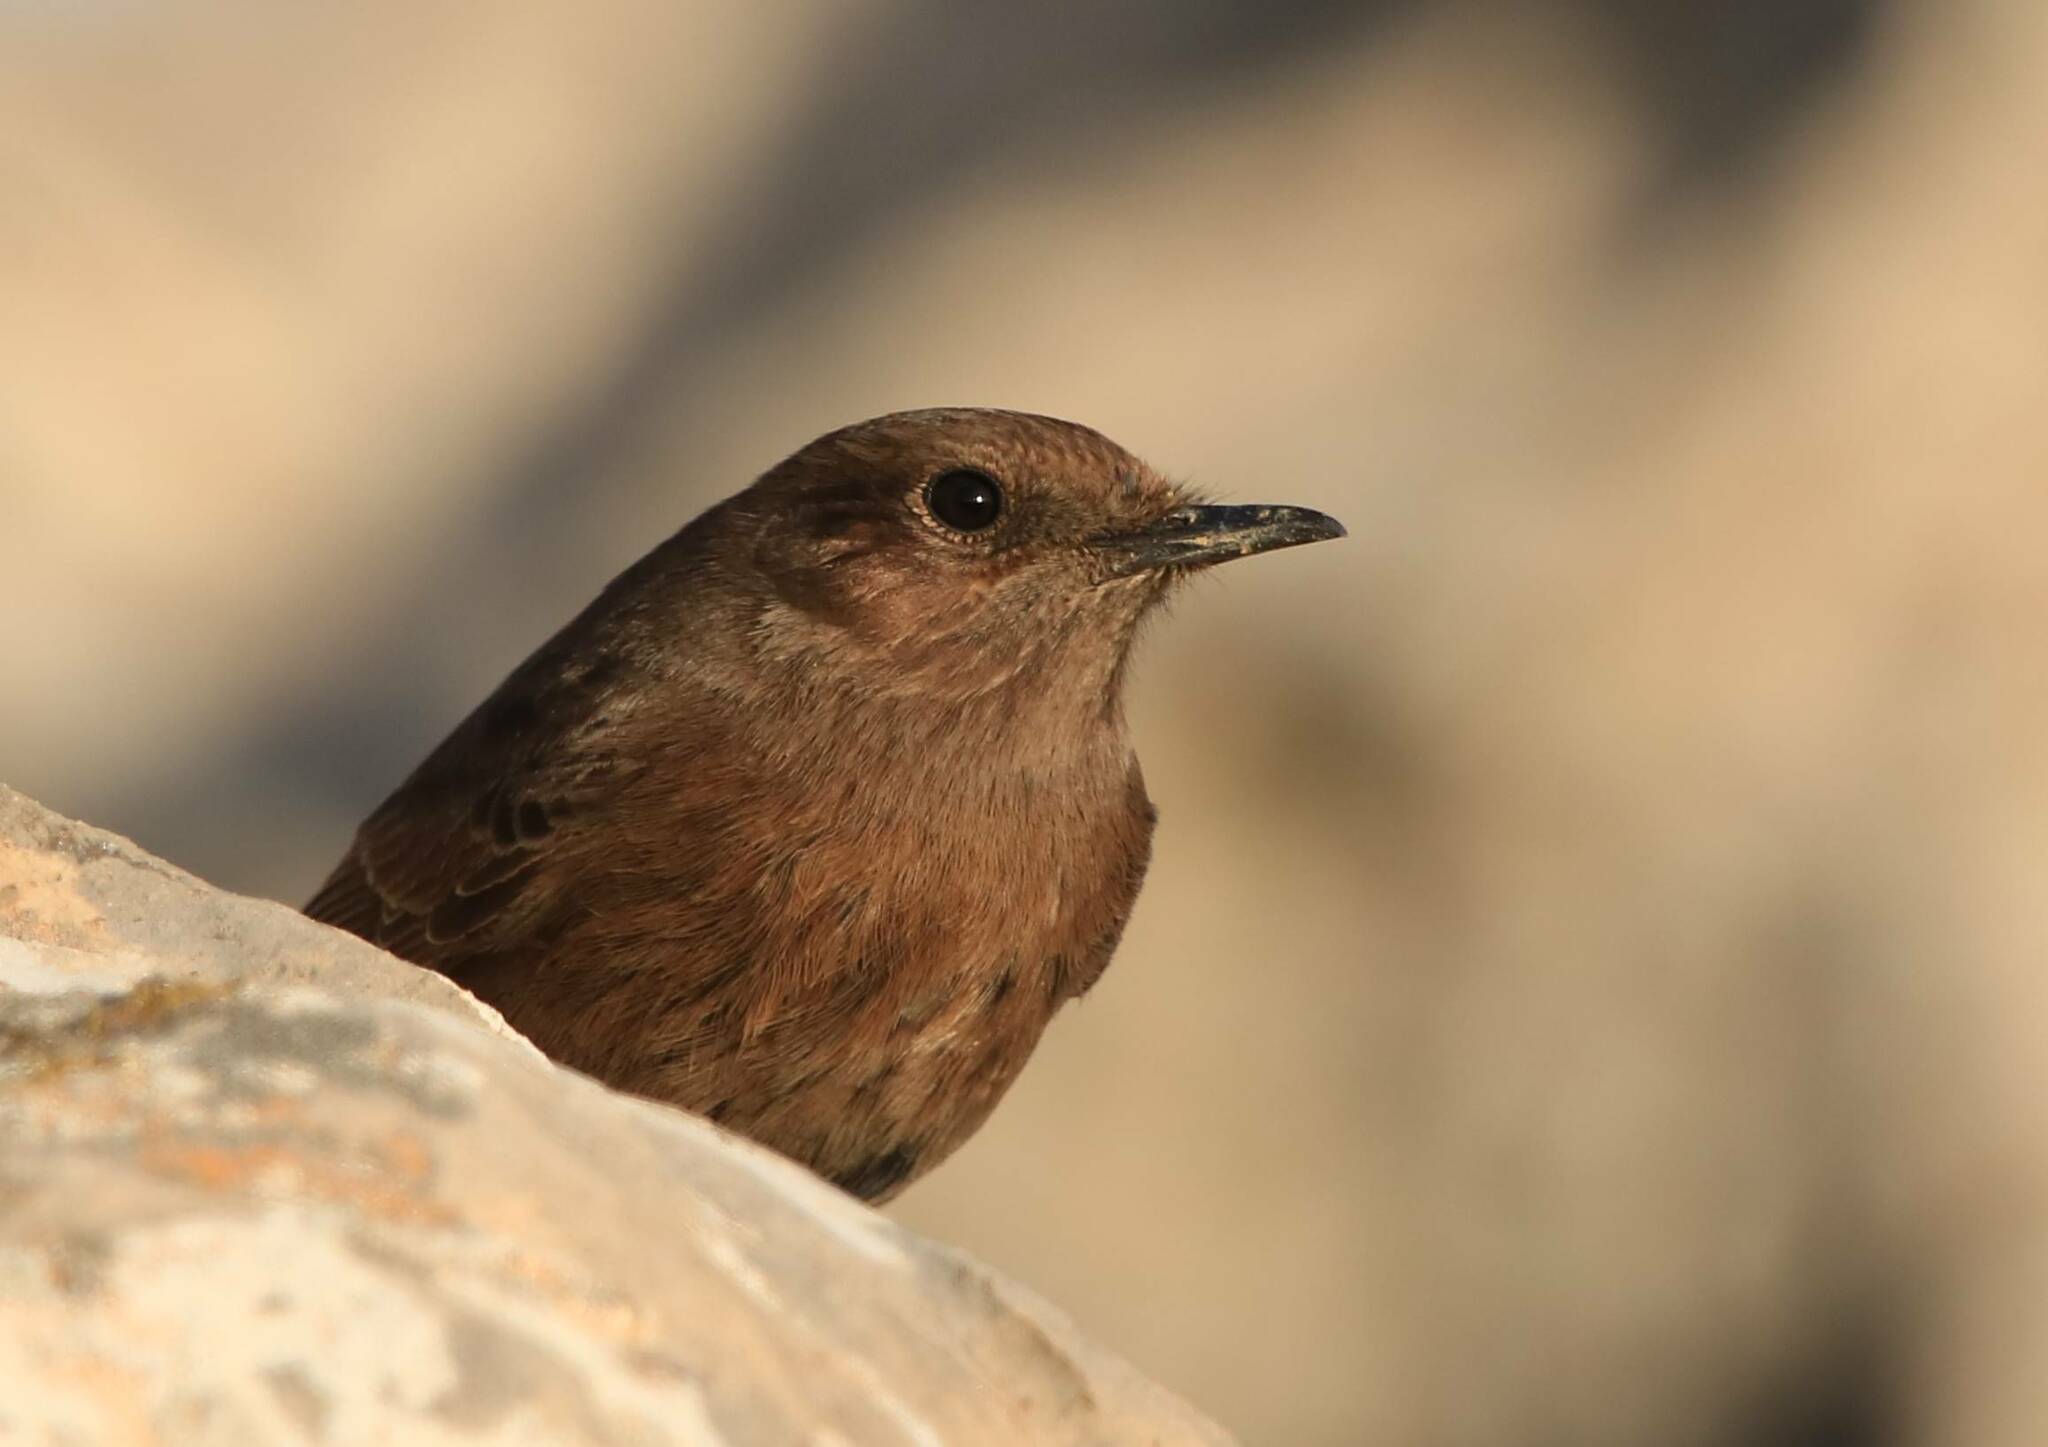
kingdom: Animalia
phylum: Chordata
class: Aves
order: Passeriformes
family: Muscicapidae
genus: Oenanthe
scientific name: Oenanthe leucura
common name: Black wheatear
